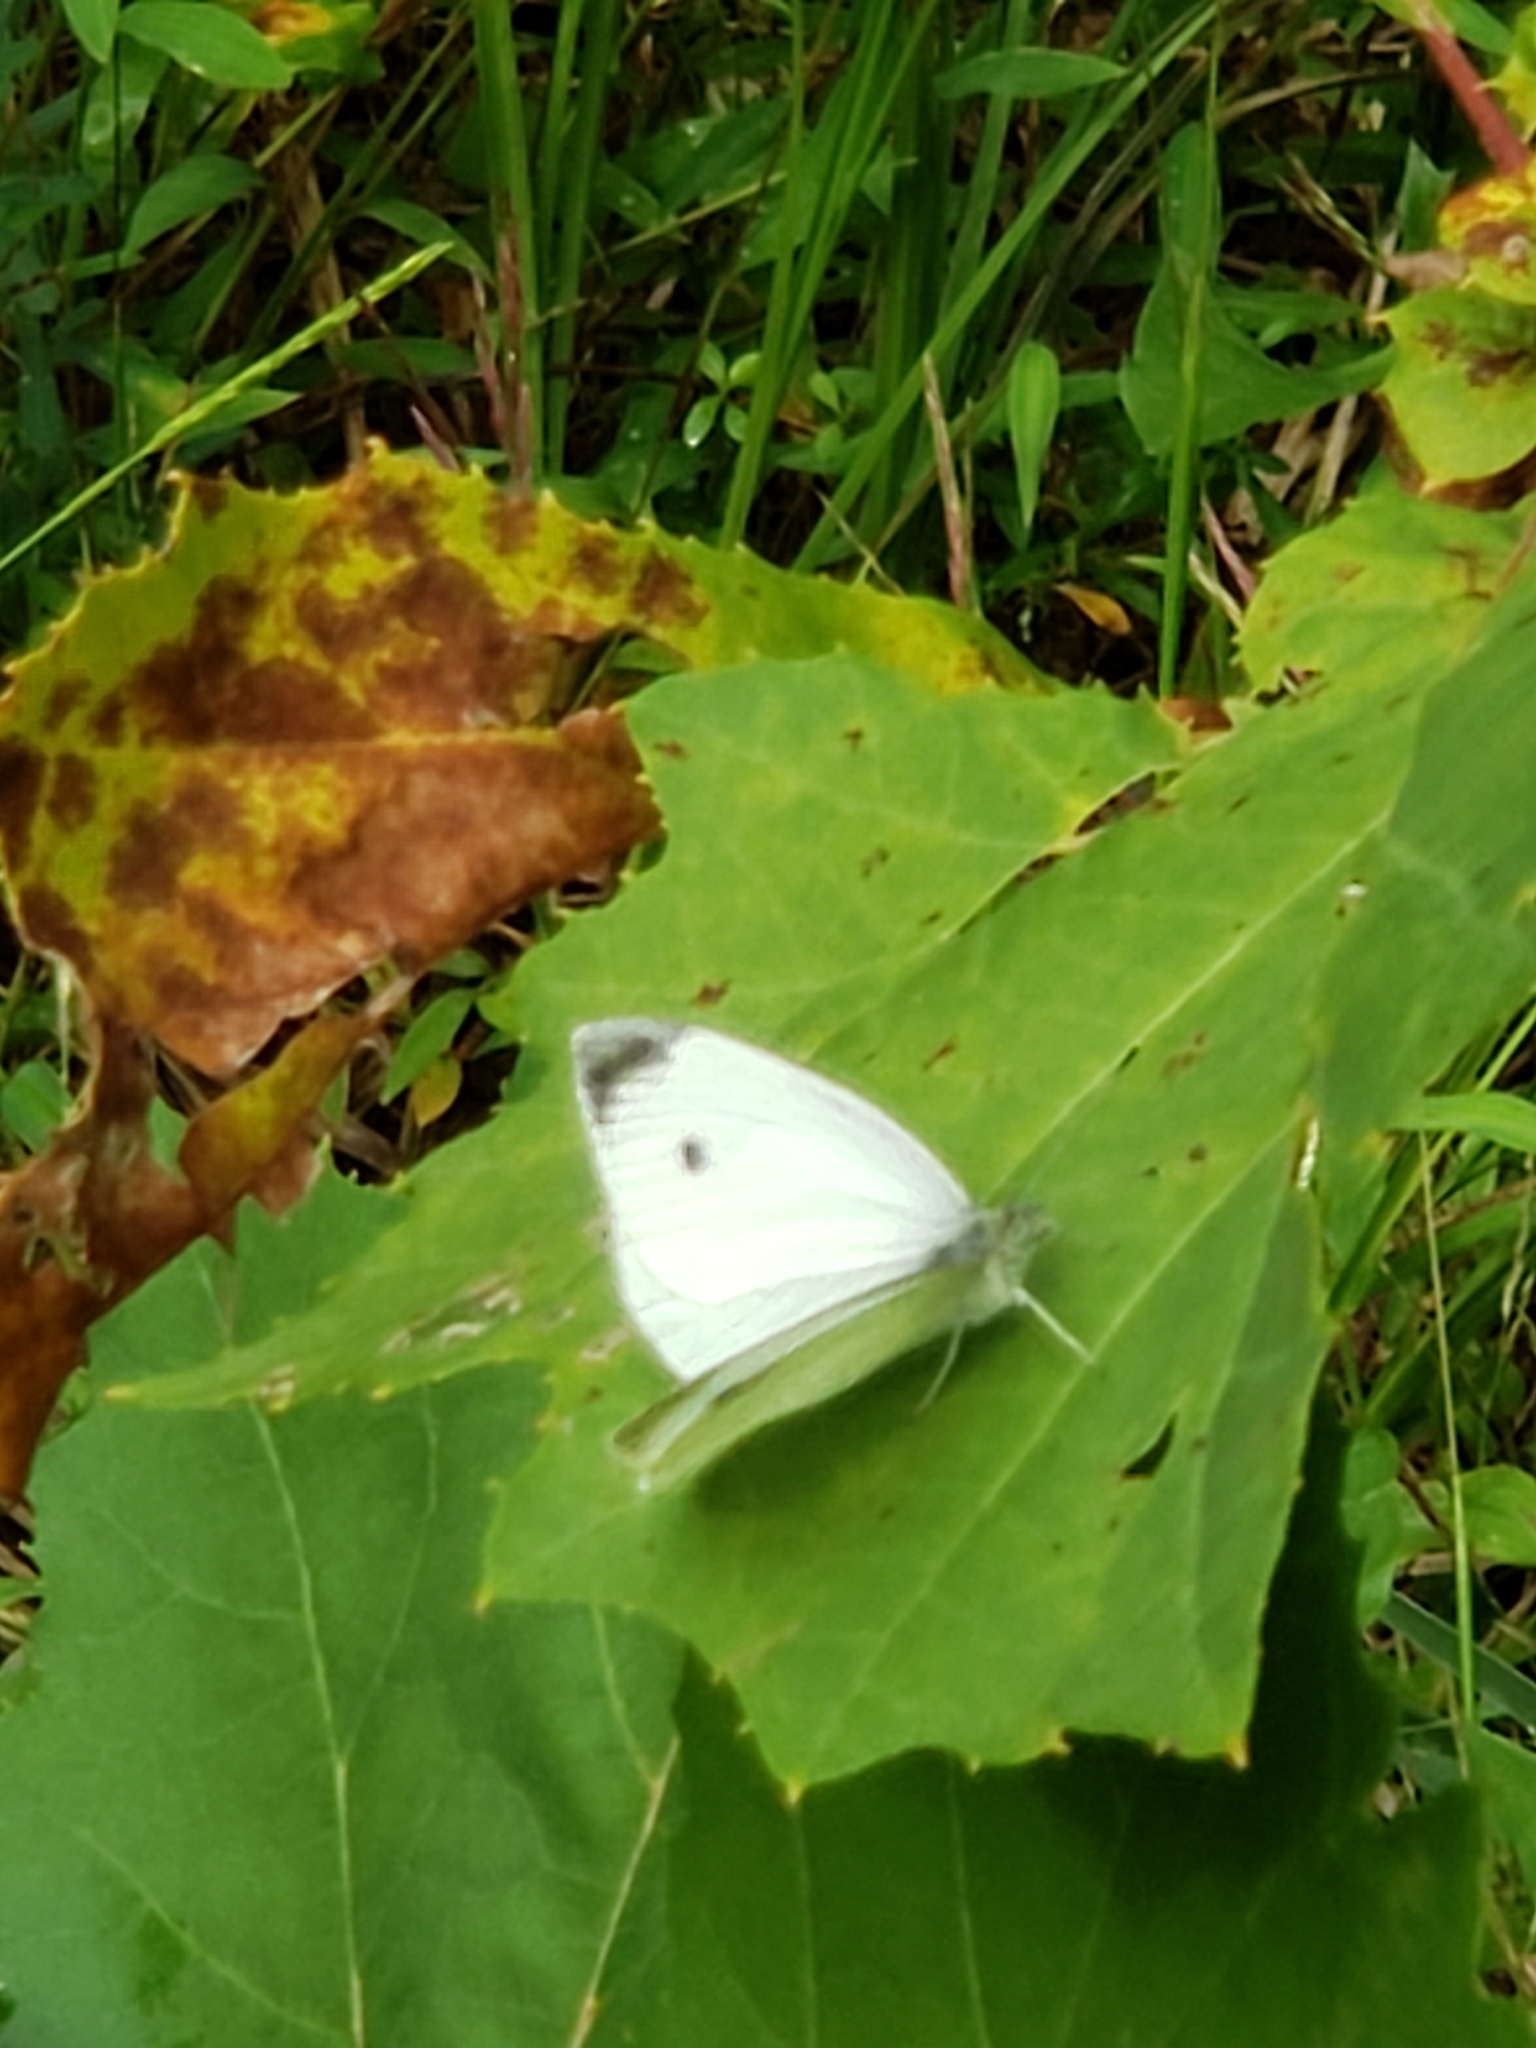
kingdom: Animalia
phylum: Arthropoda
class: Insecta
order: Lepidoptera
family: Pieridae
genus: Pieris
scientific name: Pieris rapae
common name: Small white
